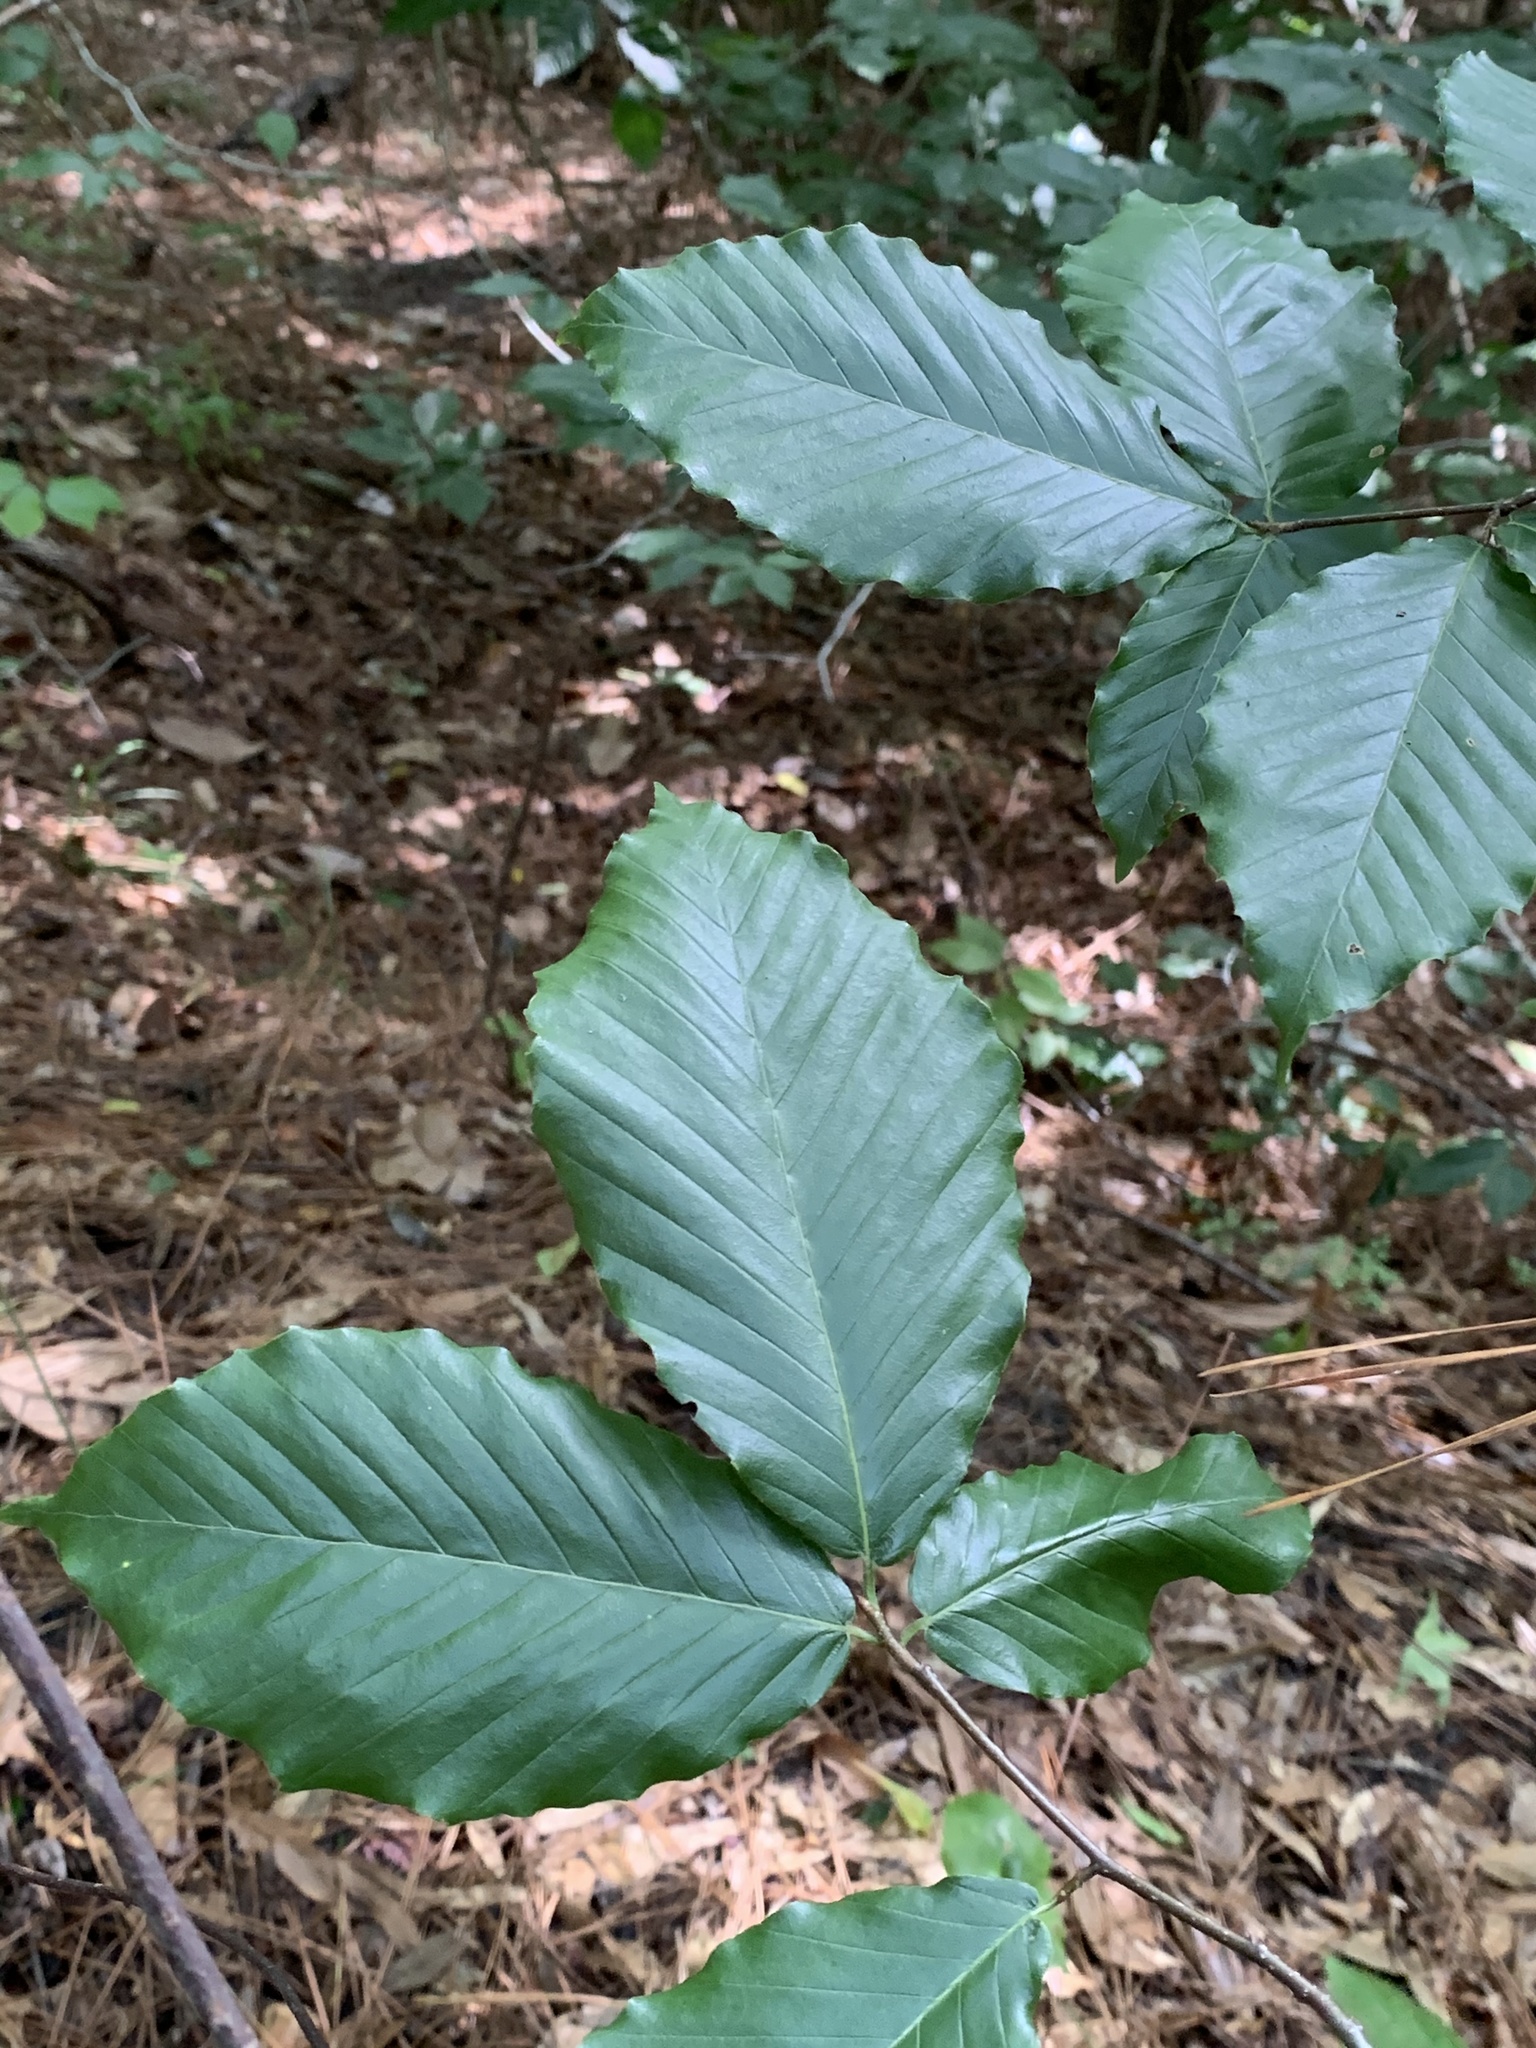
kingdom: Plantae
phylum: Tracheophyta
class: Magnoliopsida
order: Fagales
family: Fagaceae
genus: Fagus
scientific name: Fagus grandifolia
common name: American beech
